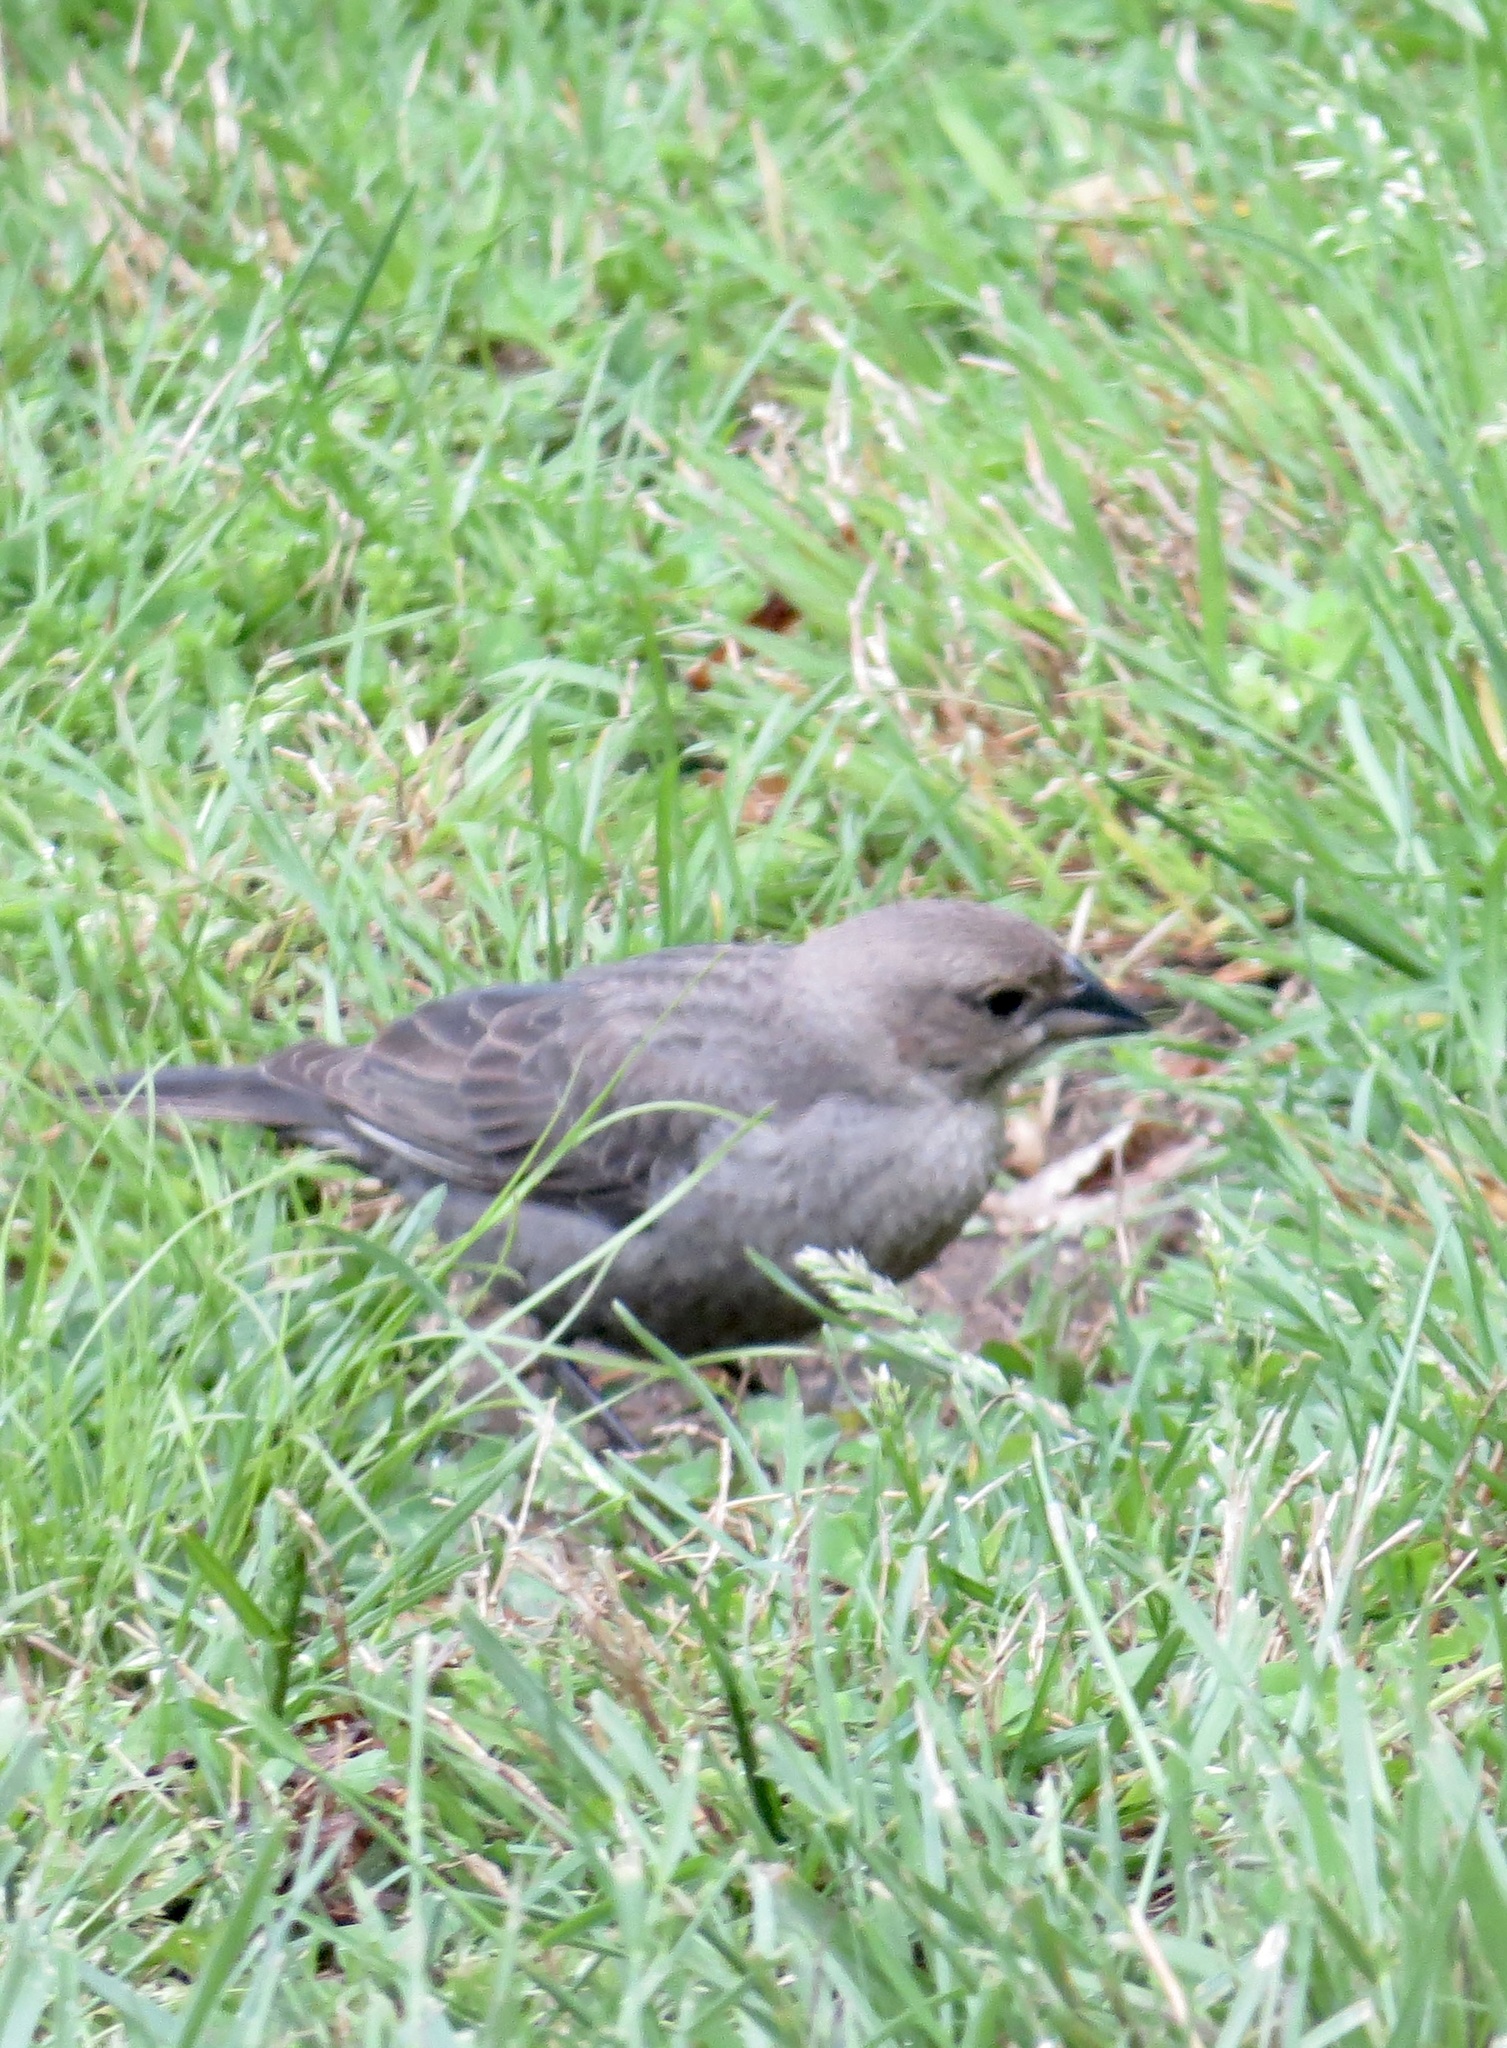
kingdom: Animalia
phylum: Chordata
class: Aves
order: Passeriformes
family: Icteridae
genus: Molothrus
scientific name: Molothrus ater
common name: Brown-headed cowbird
